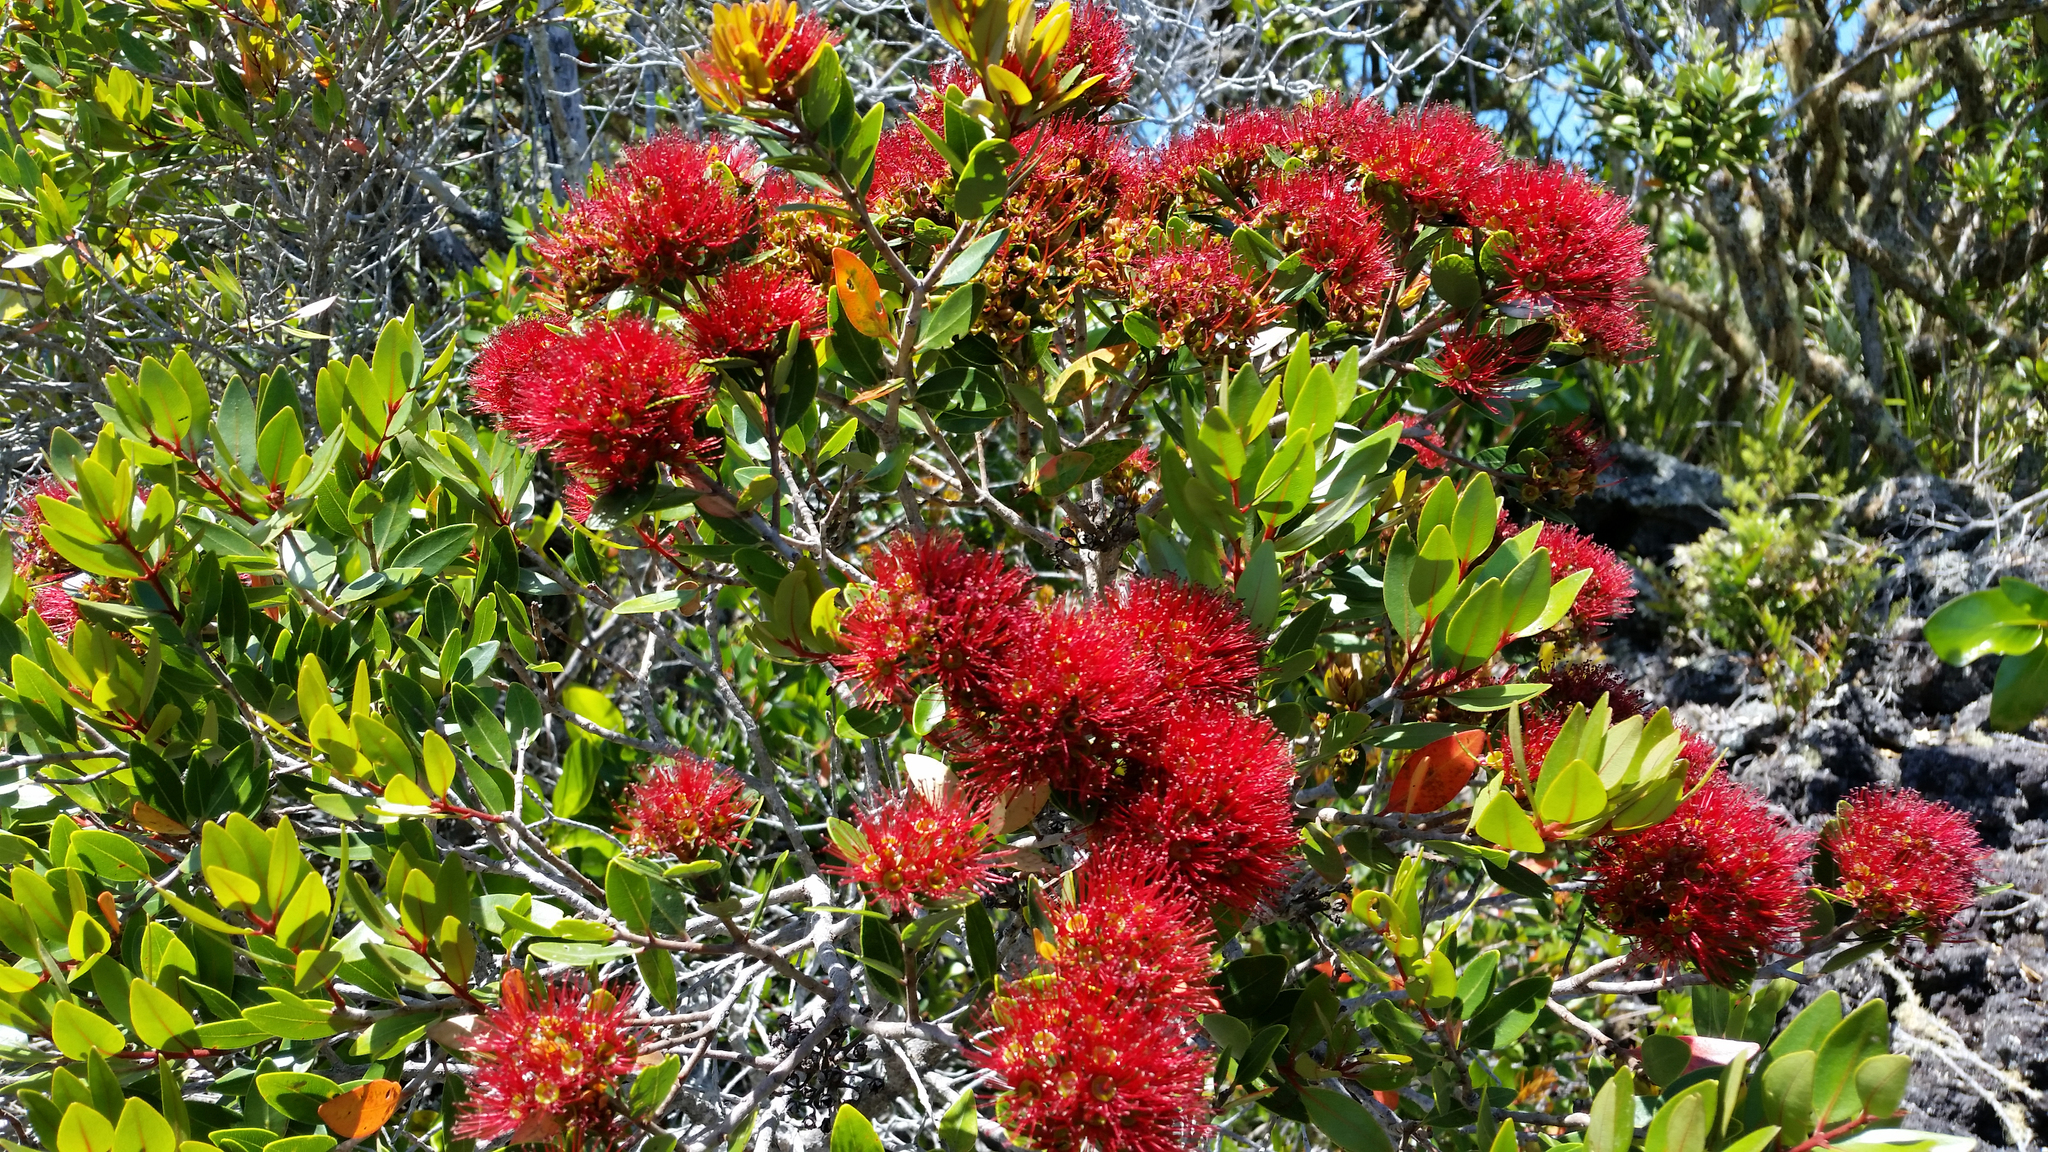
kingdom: Plantae
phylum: Tracheophyta
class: Magnoliopsida
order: Myrtales
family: Myrtaceae
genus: Metrosideros
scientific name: Metrosideros robusta
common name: Northern rata
